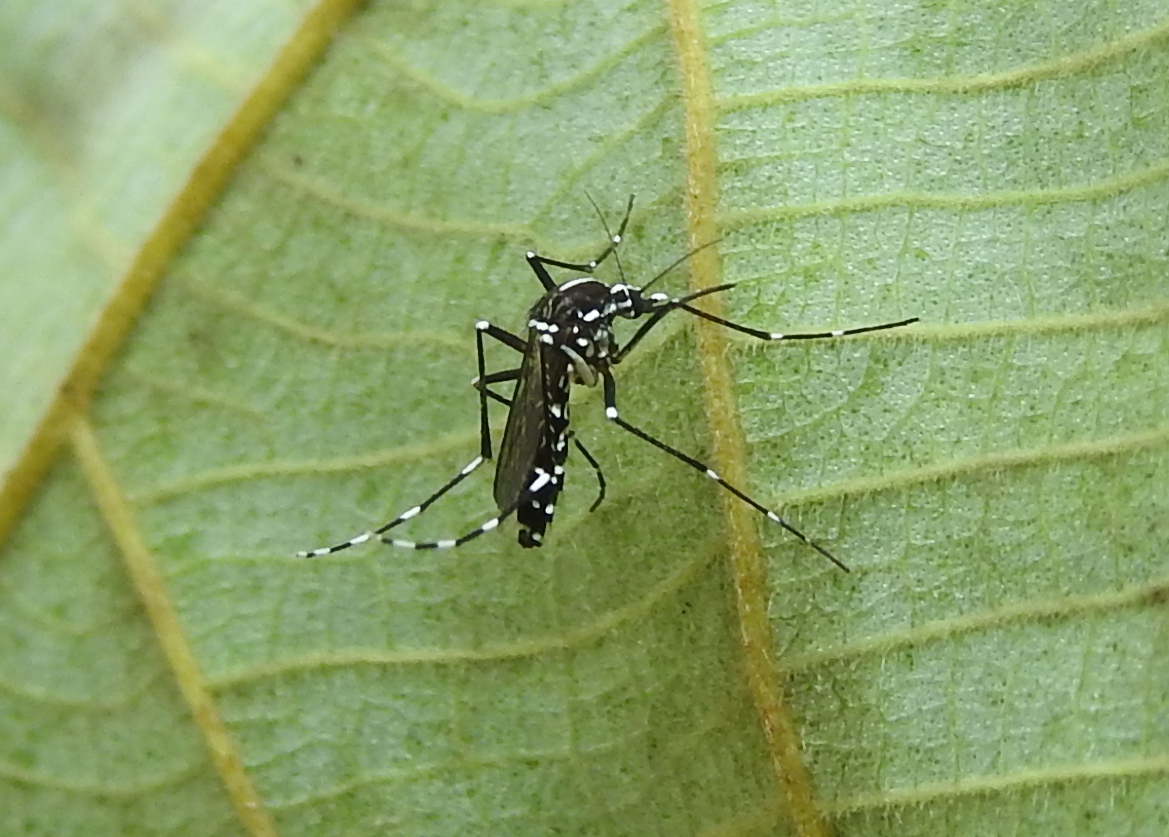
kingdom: Animalia
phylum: Arthropoda
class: Insecta
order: Diptera
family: Culicidae
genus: Aedes
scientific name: Aedes albopictus
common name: Tiger mosquito
